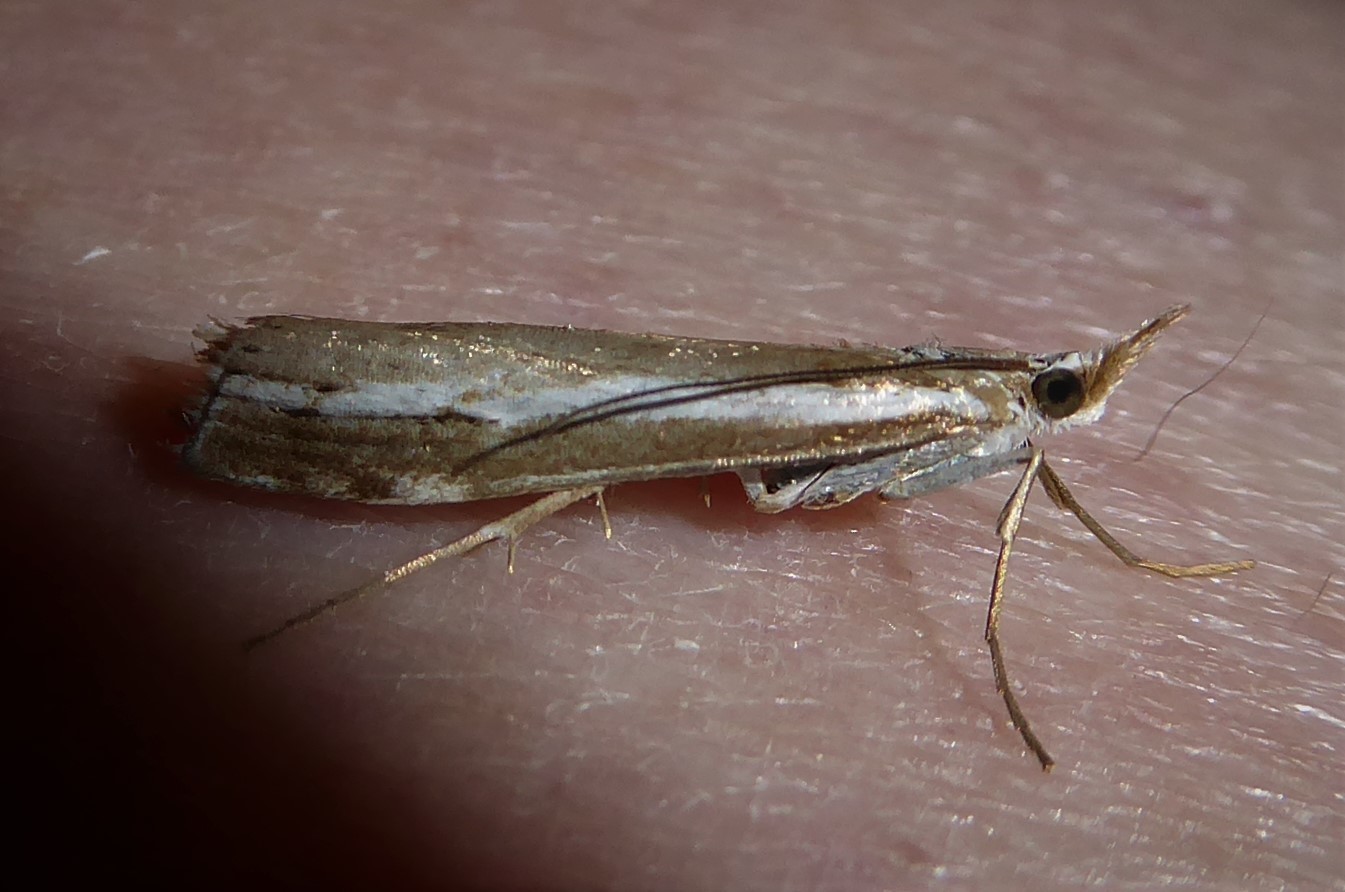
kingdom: Animalia
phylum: Arthropoda
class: Insecta
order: Lepidoptera
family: Crambidae
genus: Orocrambus
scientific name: Orocrambus vittellus
